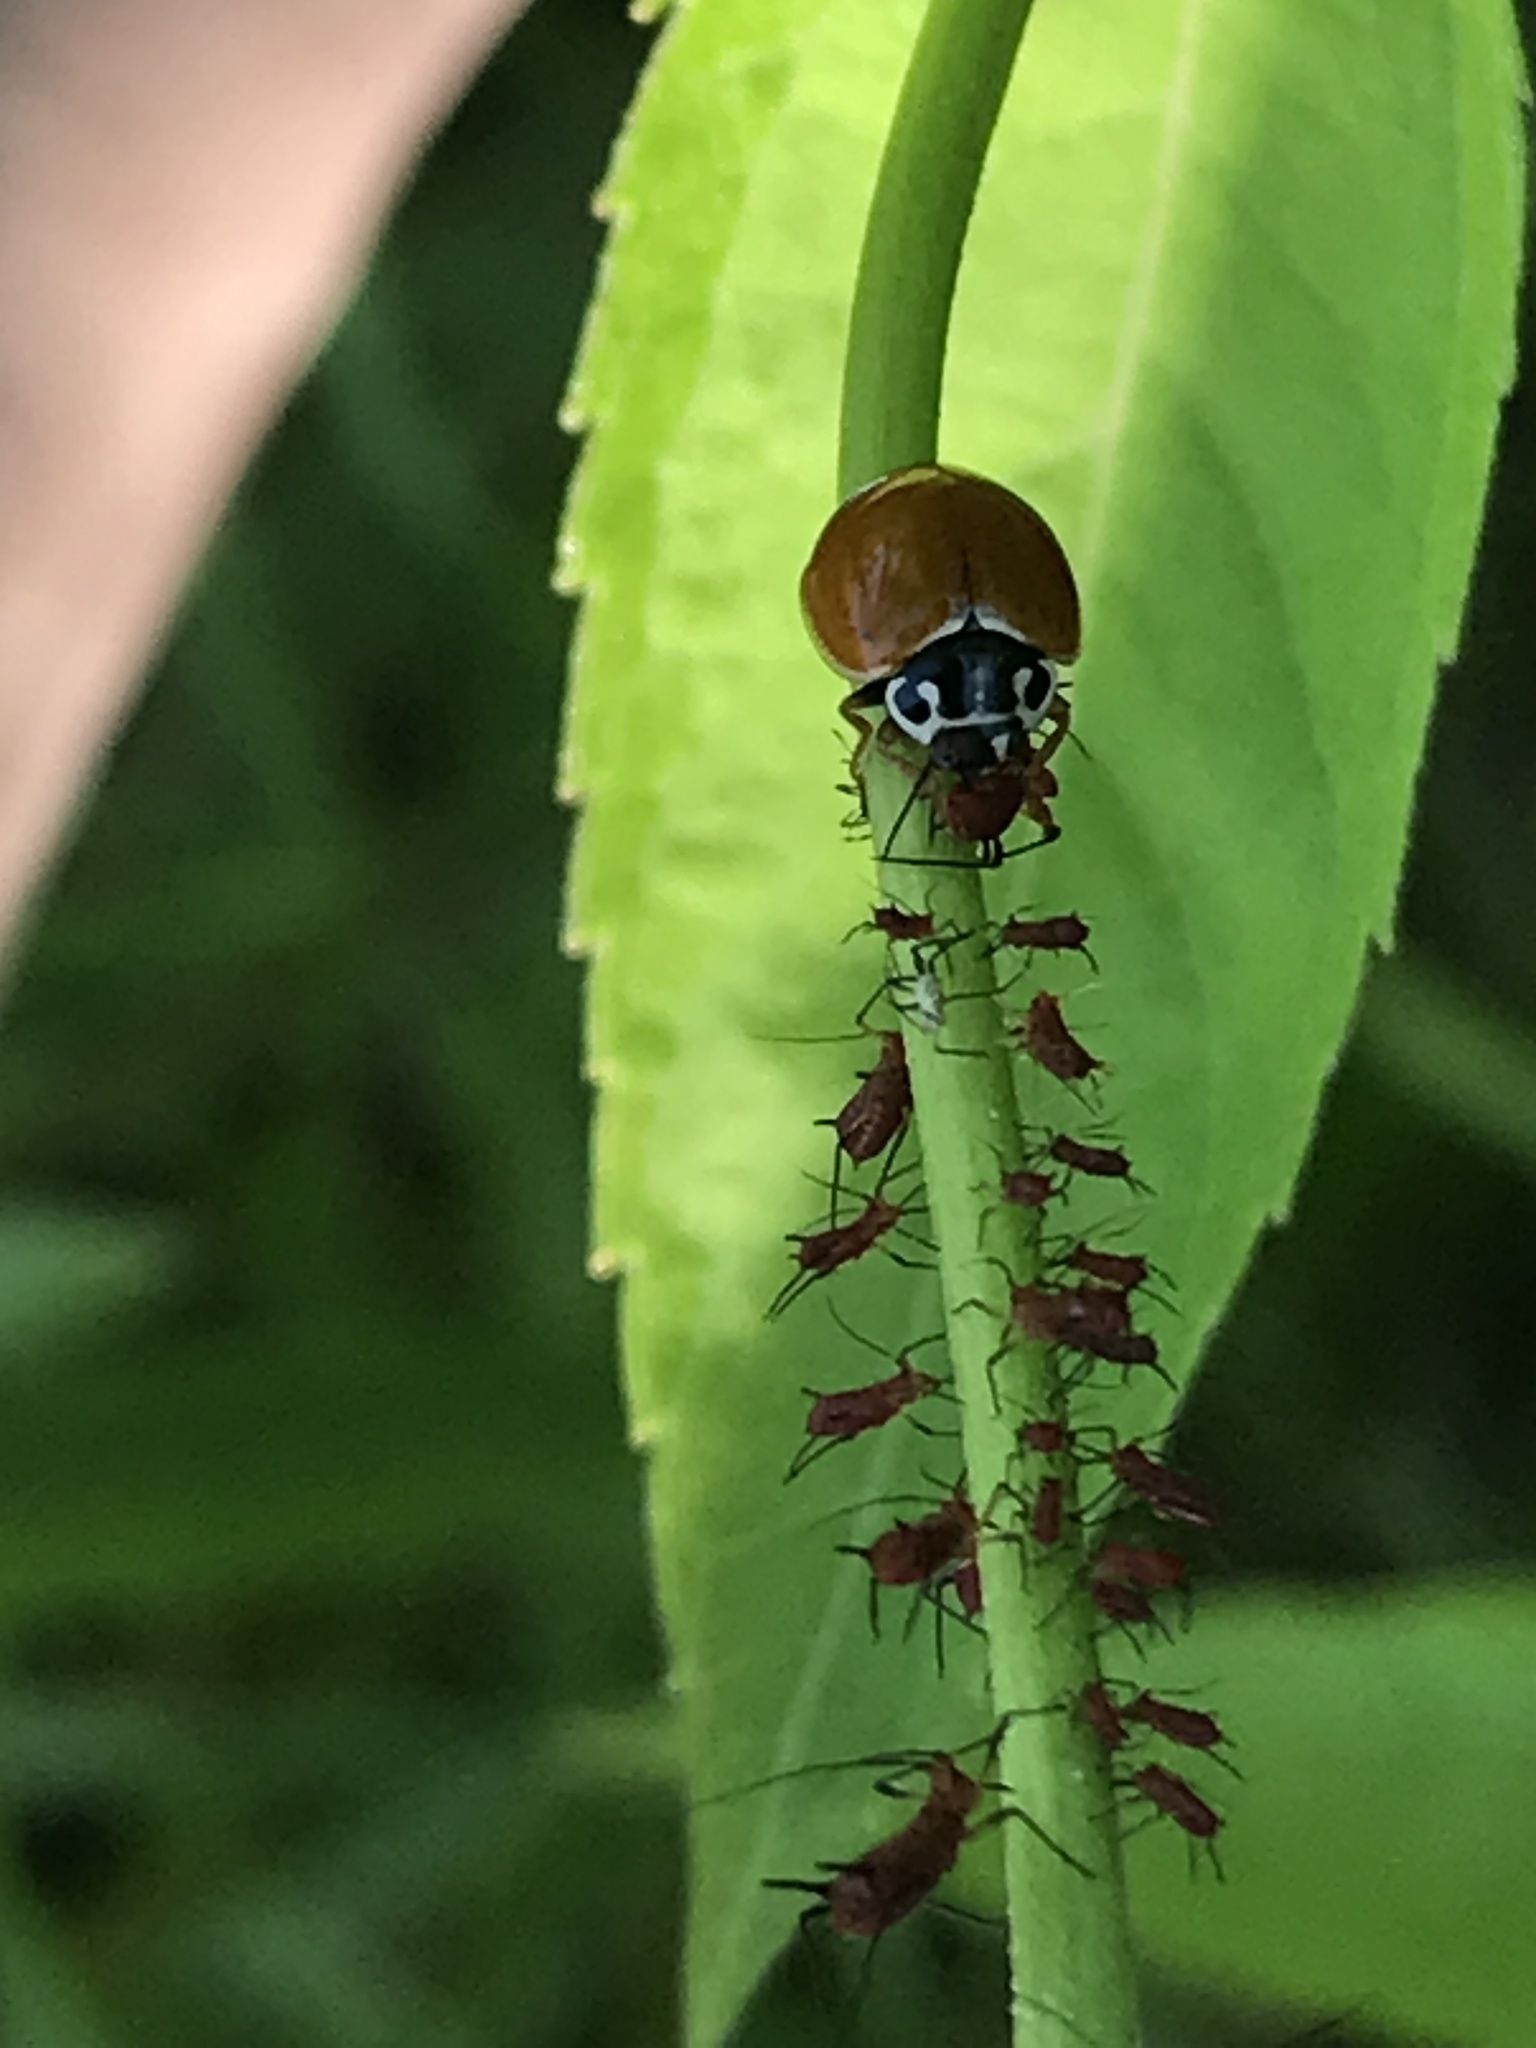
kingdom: Animalia
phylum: Arthropoda
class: Insecta
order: Coleoptera
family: Coccinellidae
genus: Cycloneda
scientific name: Cycloneda munda
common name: Polished lady beetle
